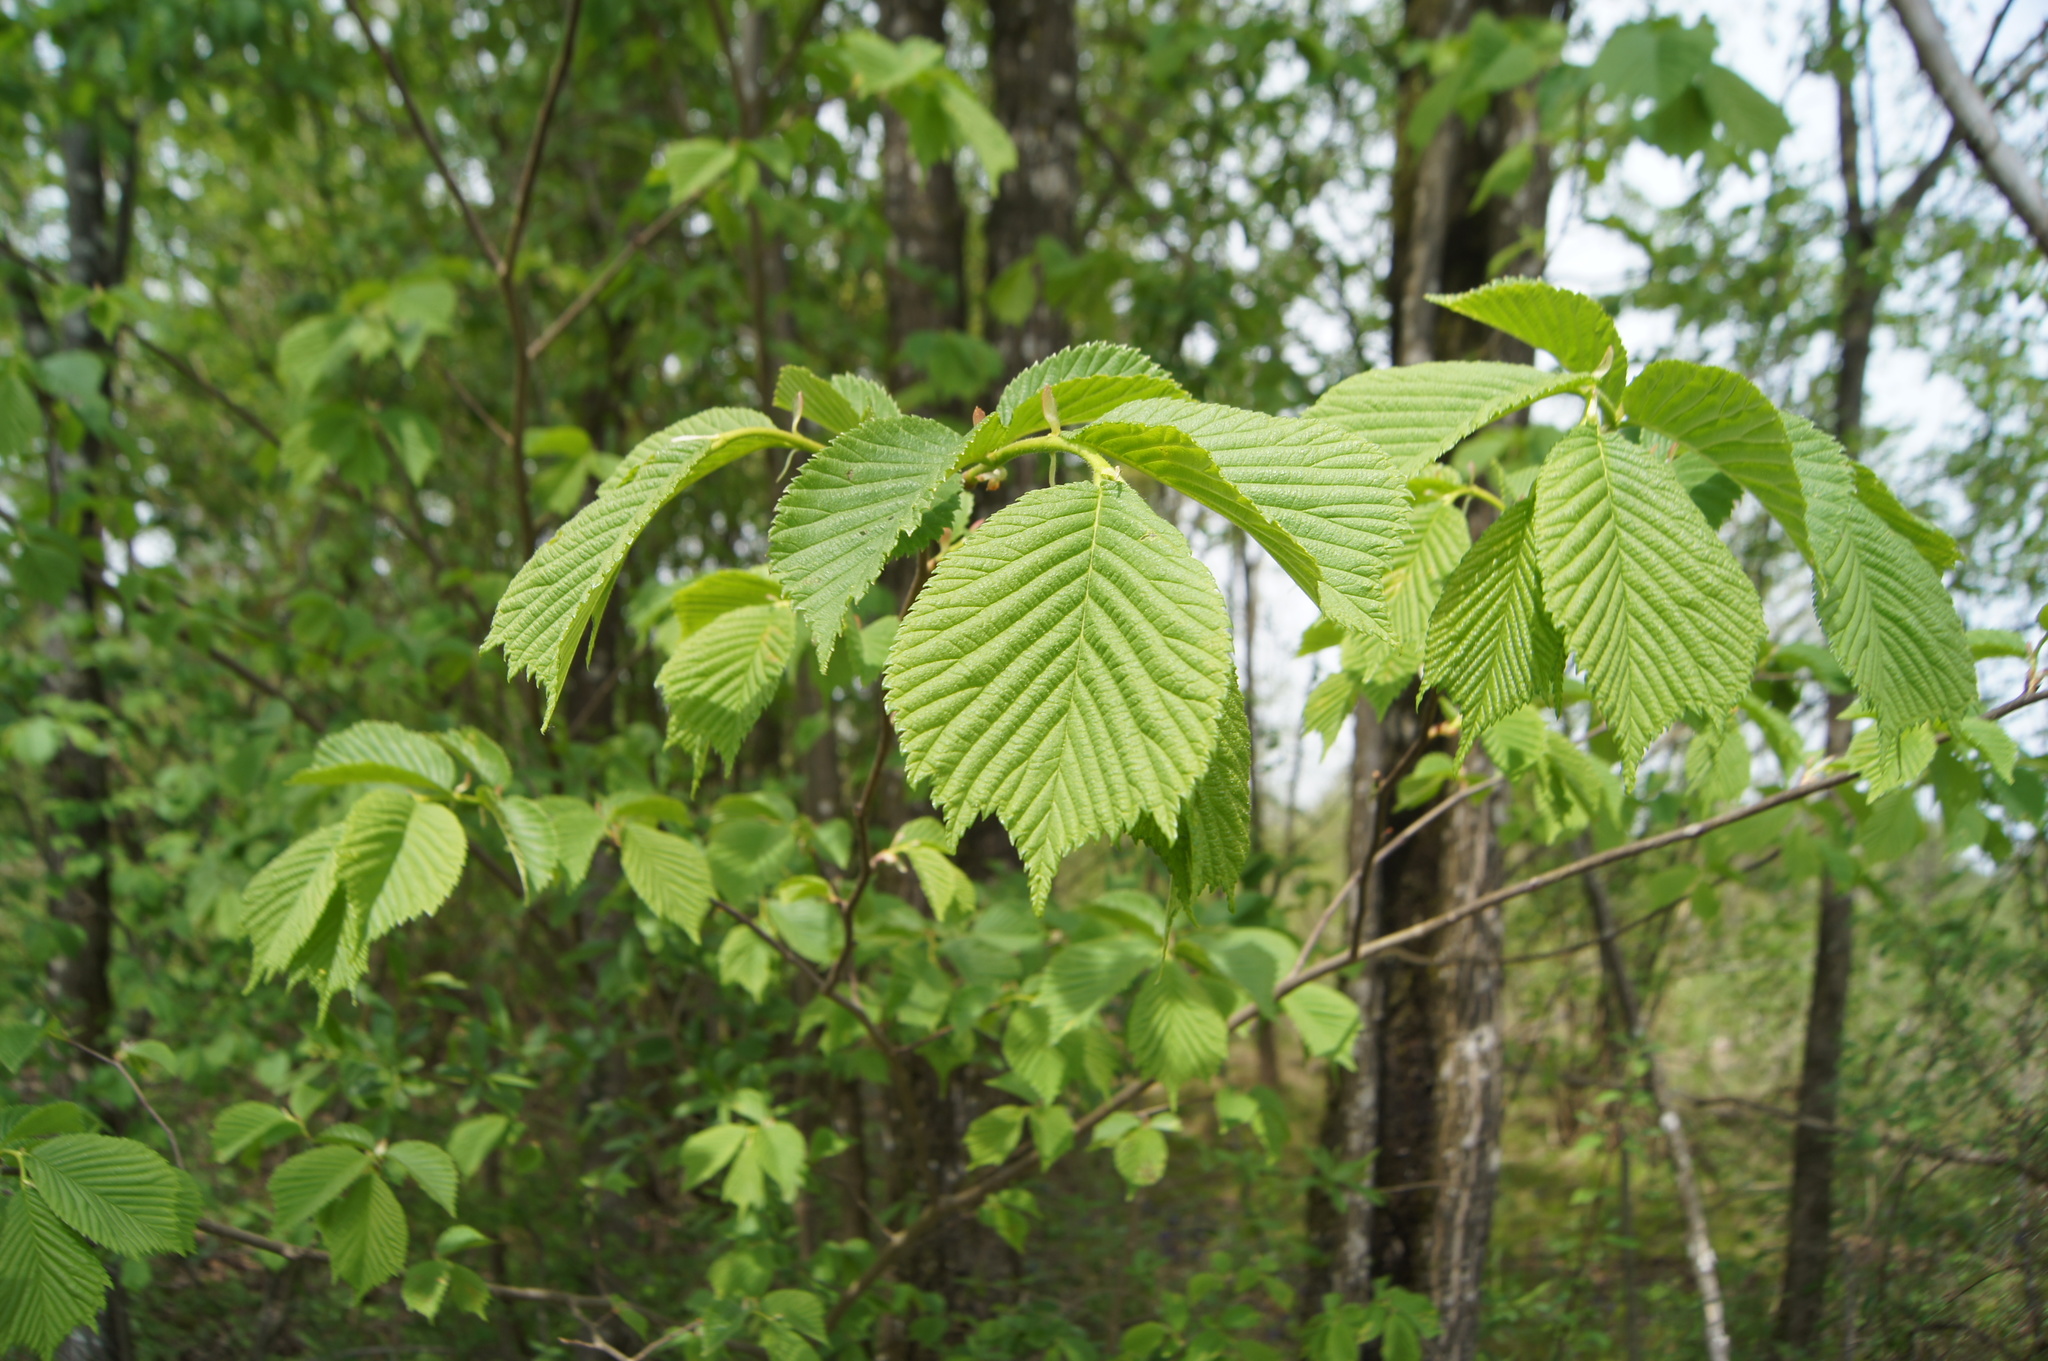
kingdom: Plantae
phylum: Tracheophyta
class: Magnoliopsida
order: Rosales
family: Ulmaceae
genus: Ulmus
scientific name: Ulmus glabra
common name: Wych elm
